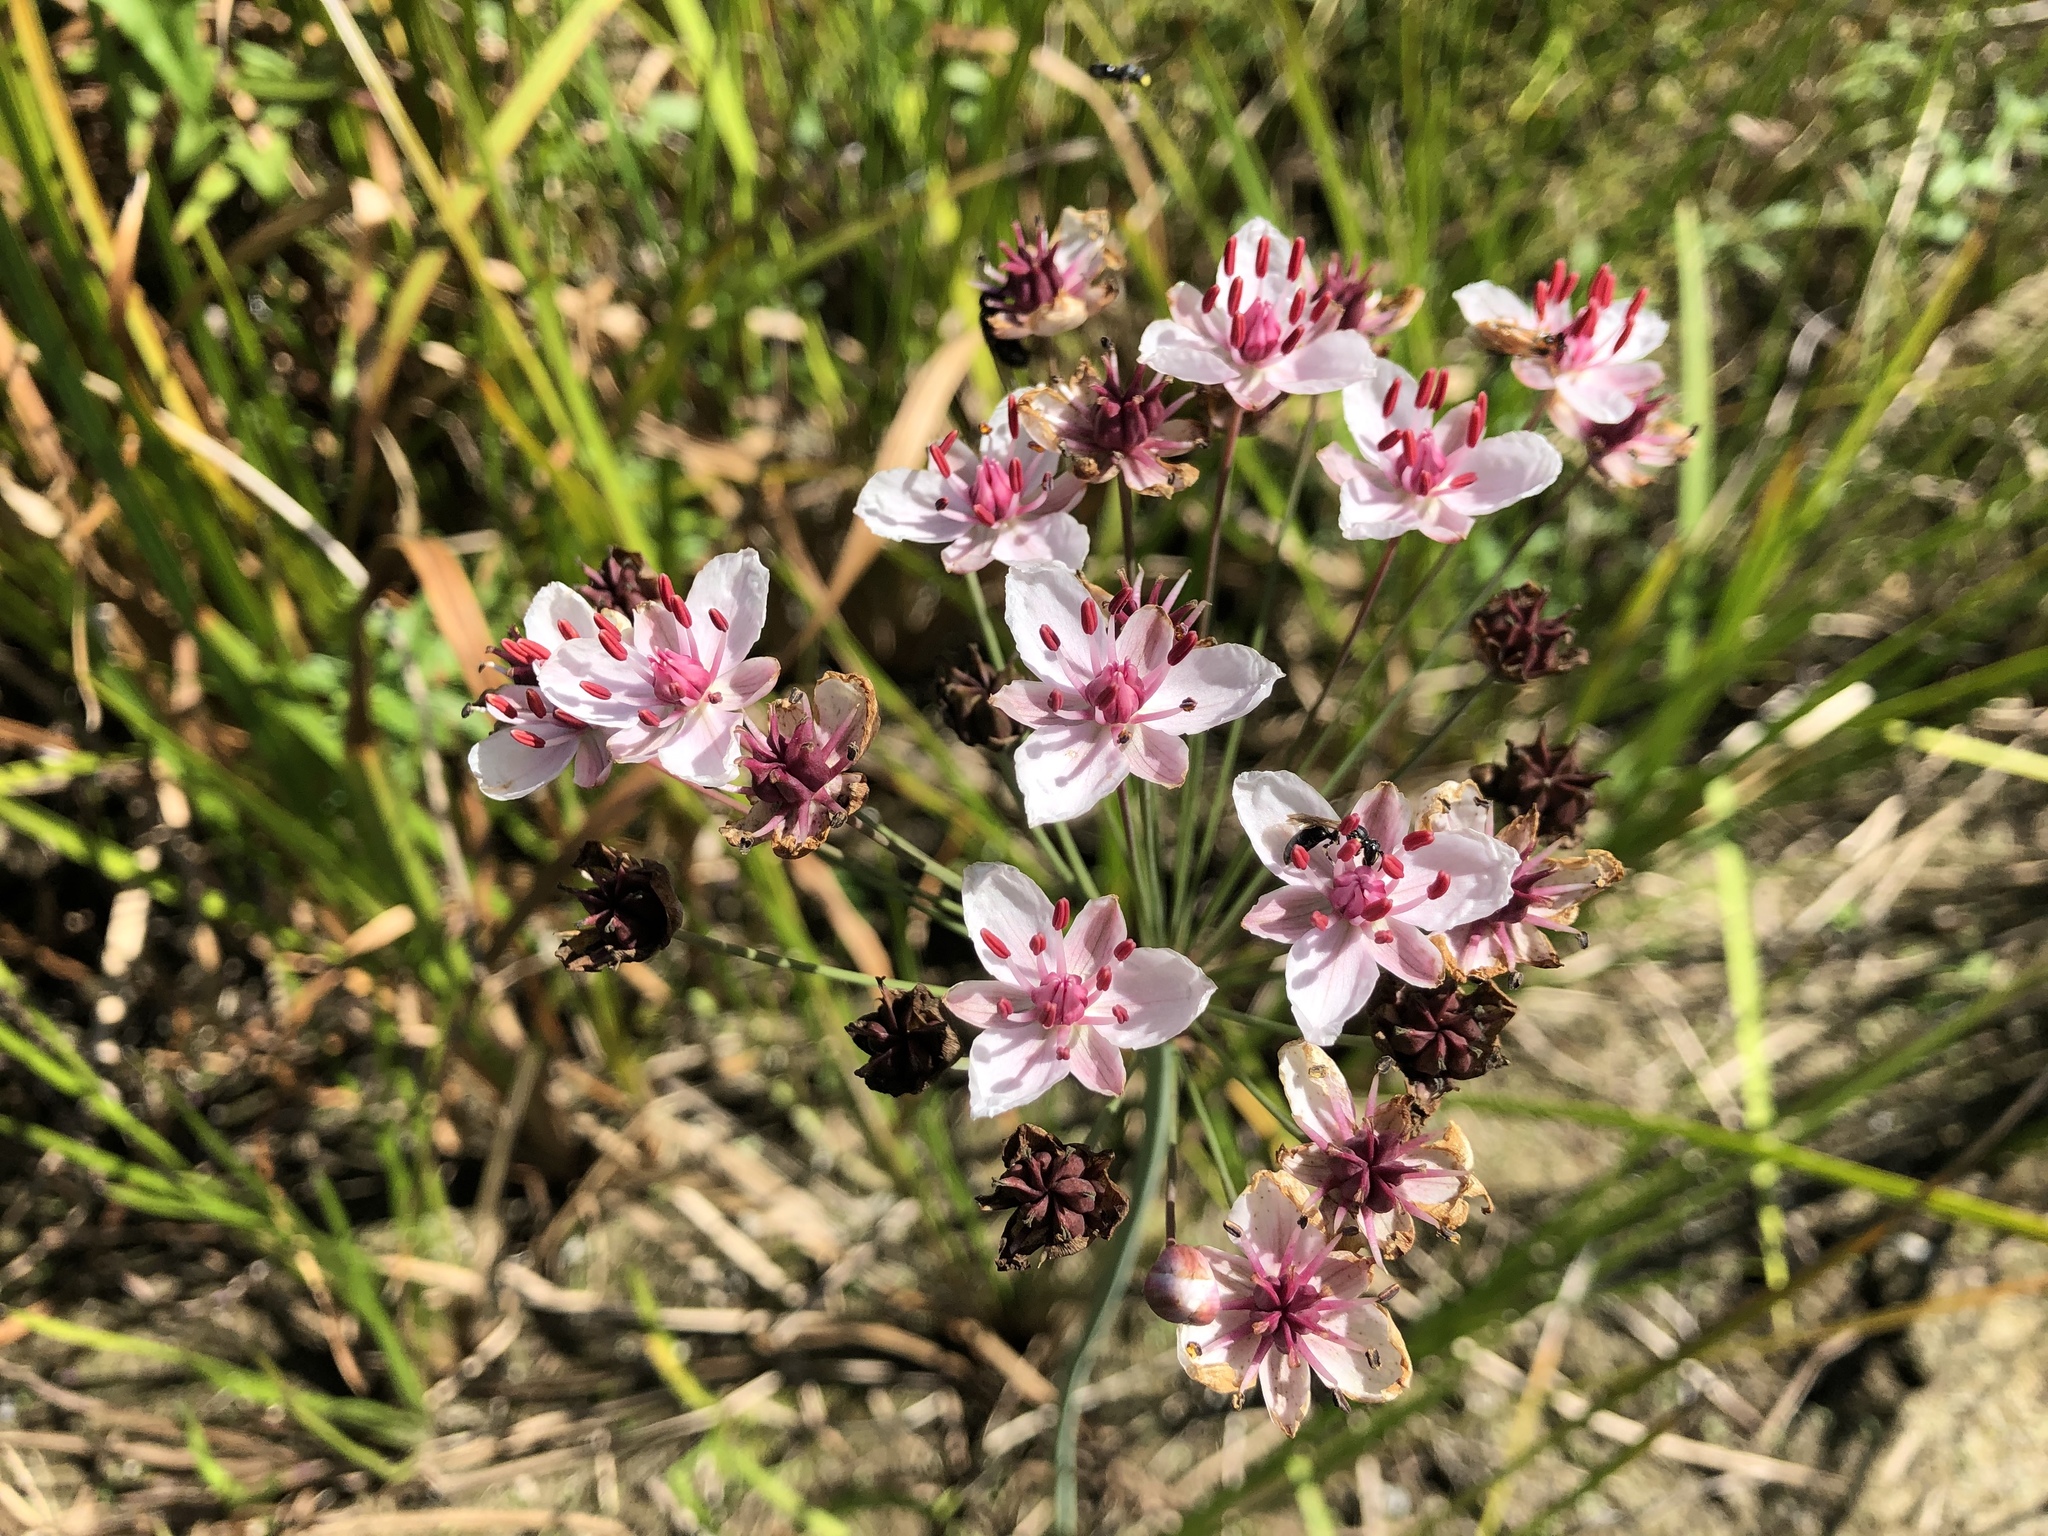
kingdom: Plantae
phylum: Tracheophyta
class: Liliopsida
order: Alismatales
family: Butomaceae
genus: Butomus
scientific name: Butomus umbellatus
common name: Flowering-rush
